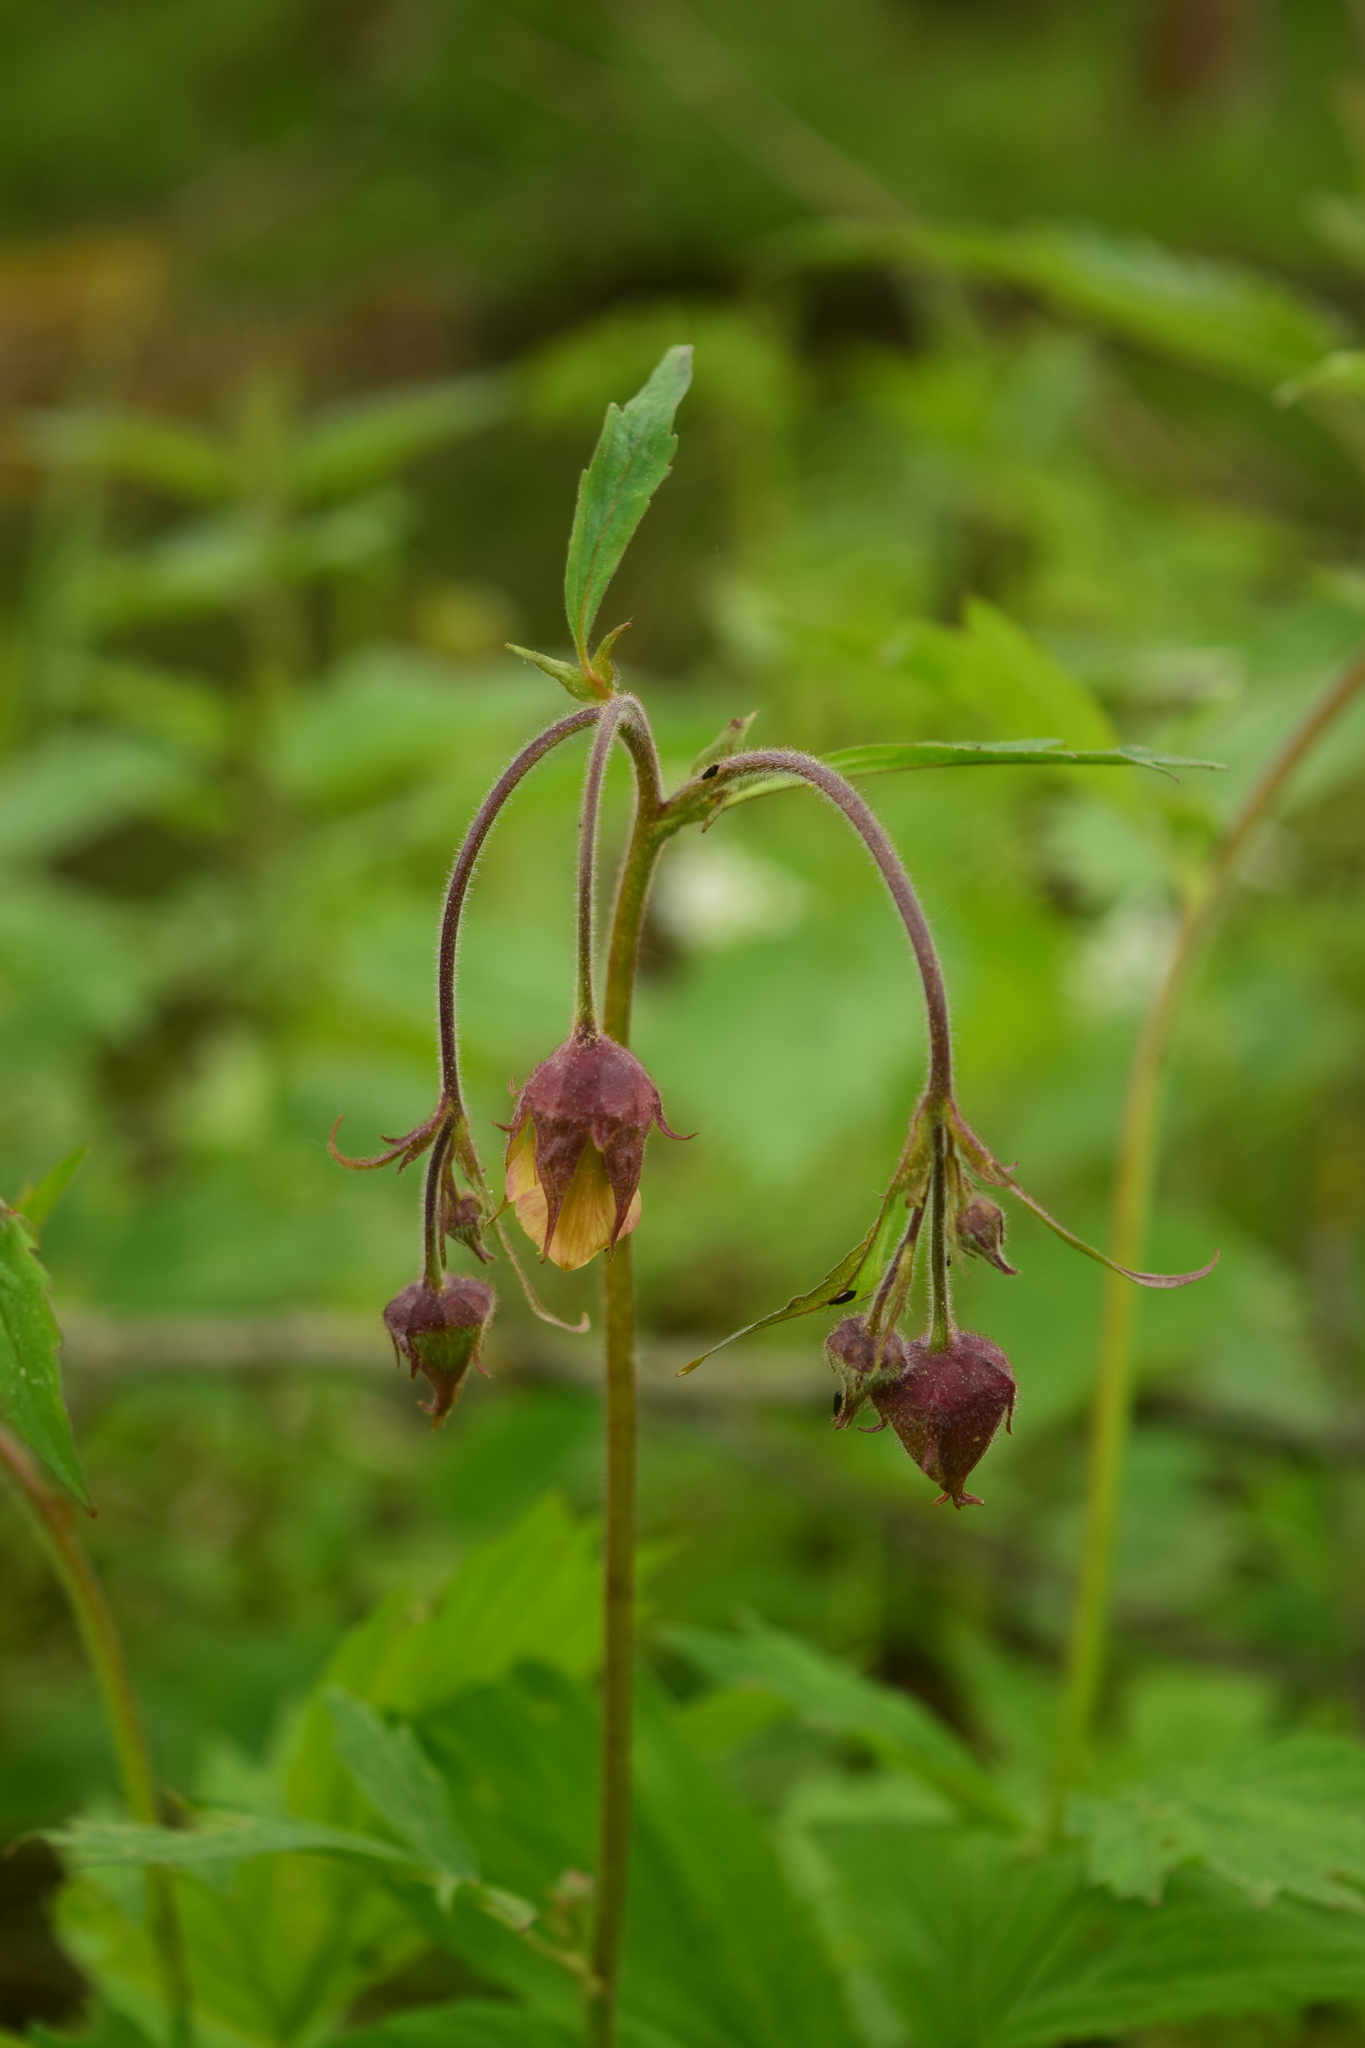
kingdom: Plantae
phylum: Tracheophyta
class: Magnoliopsida
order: Rosales
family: Rosaceae
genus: Geum
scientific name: Geum rivale
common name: Water avens
